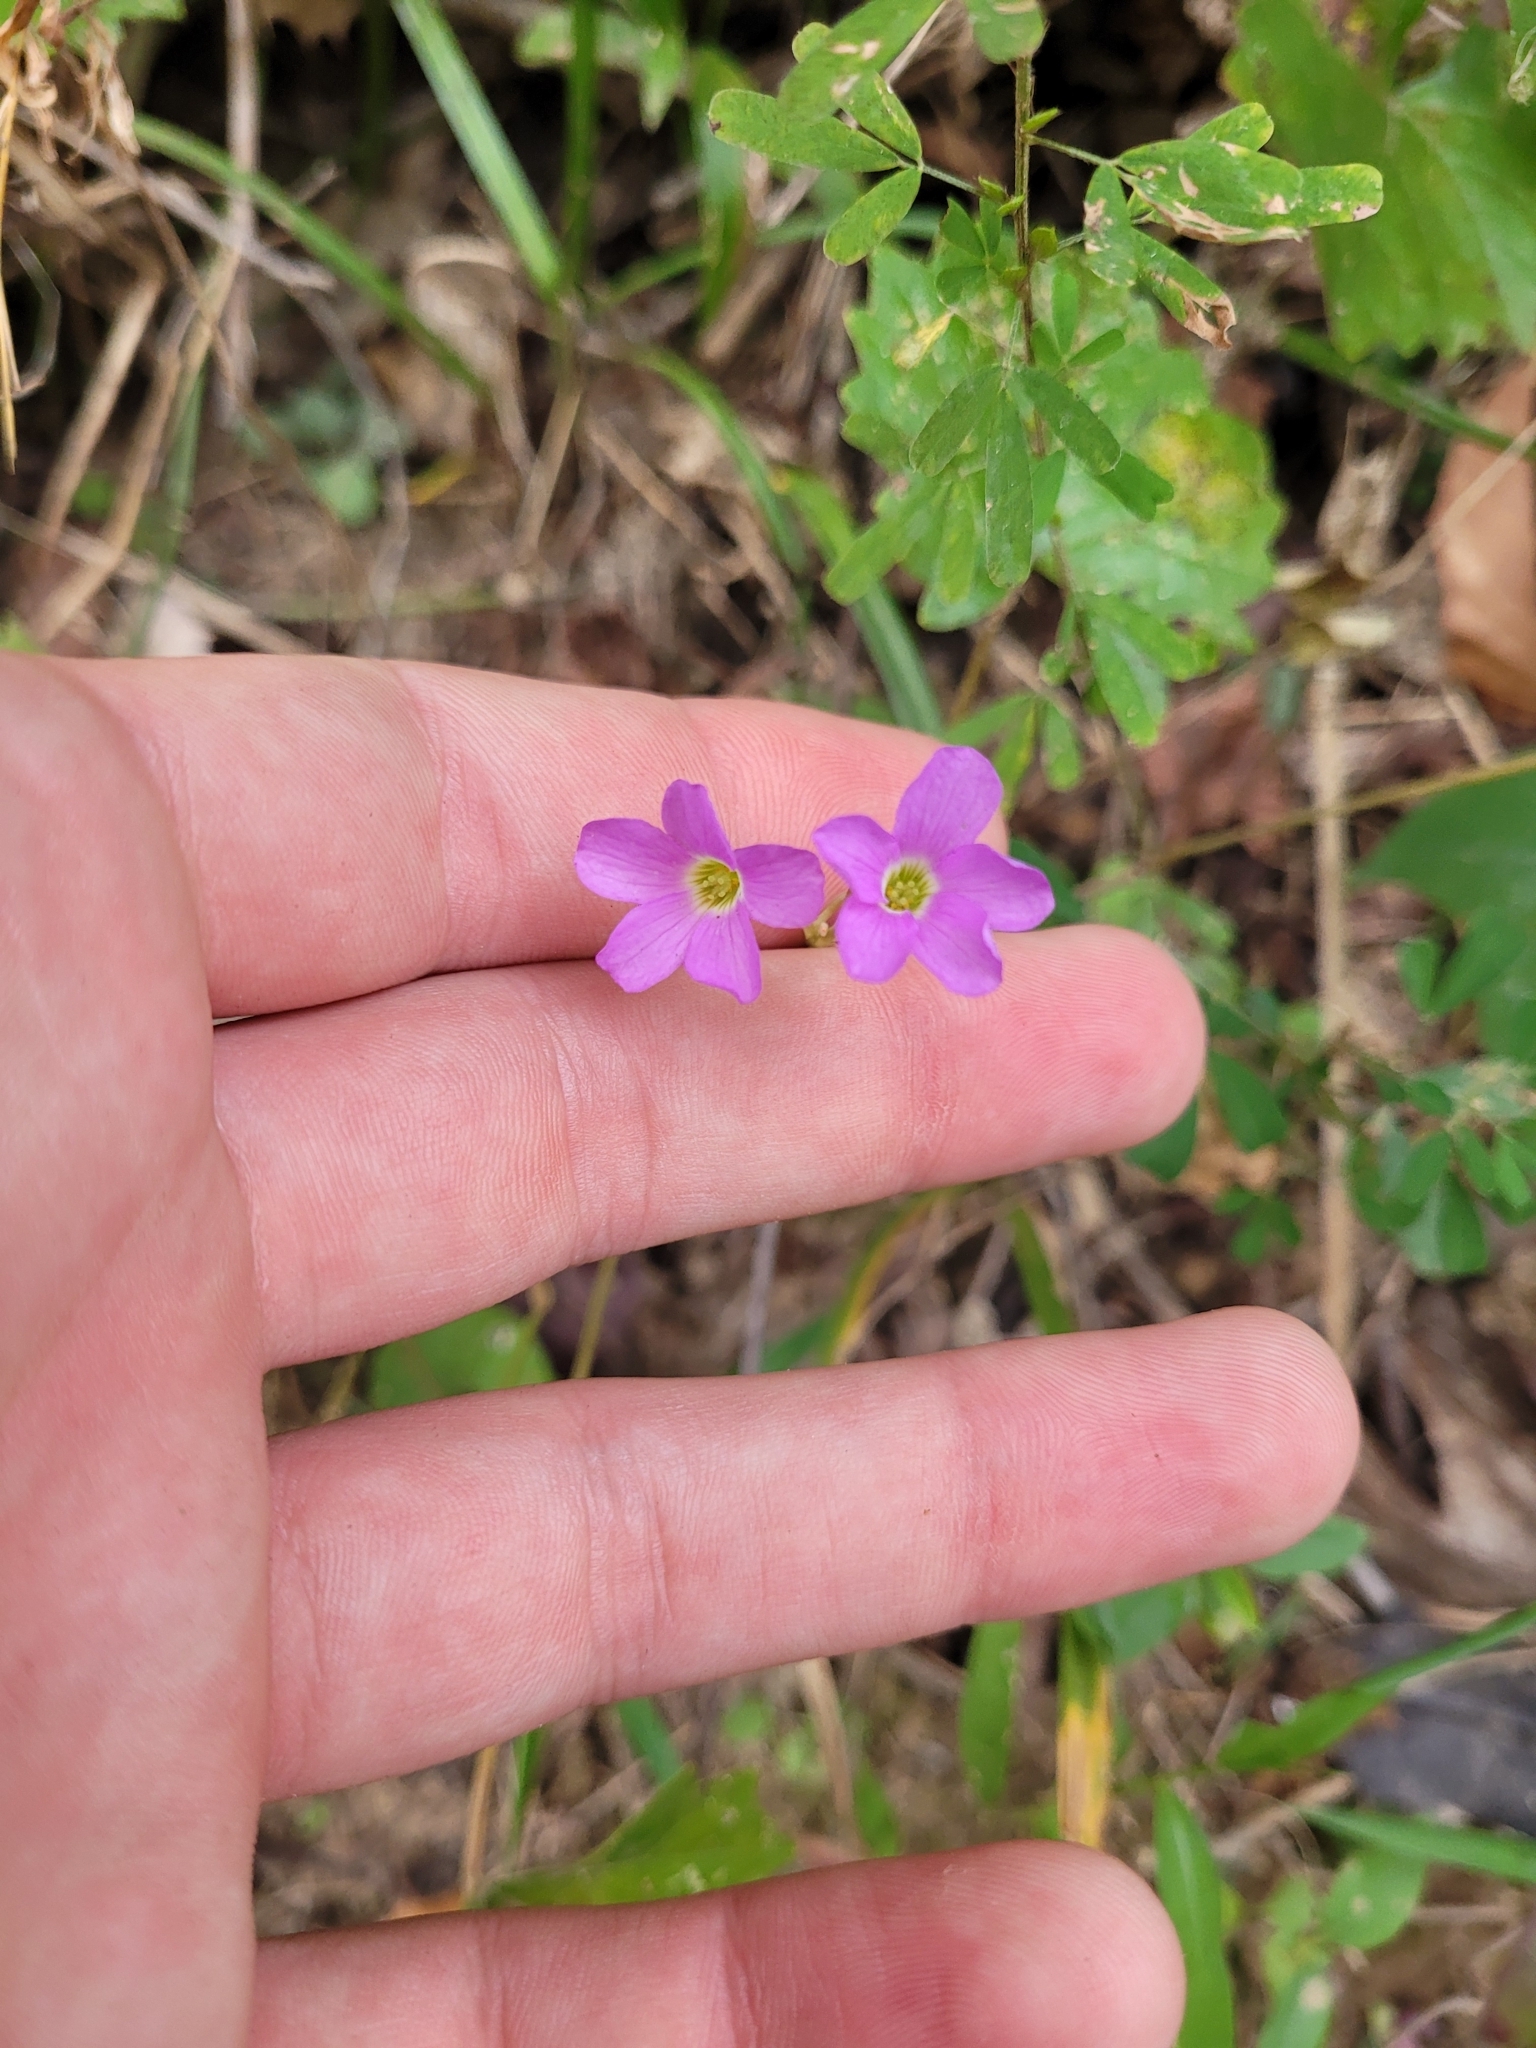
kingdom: Plantae
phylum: Tracheophyta
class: Magnoliopsida
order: Oxalidales
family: Oxalidaceae
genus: Oxalis
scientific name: Oxalis violacea
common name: Violet wood-sorrel
